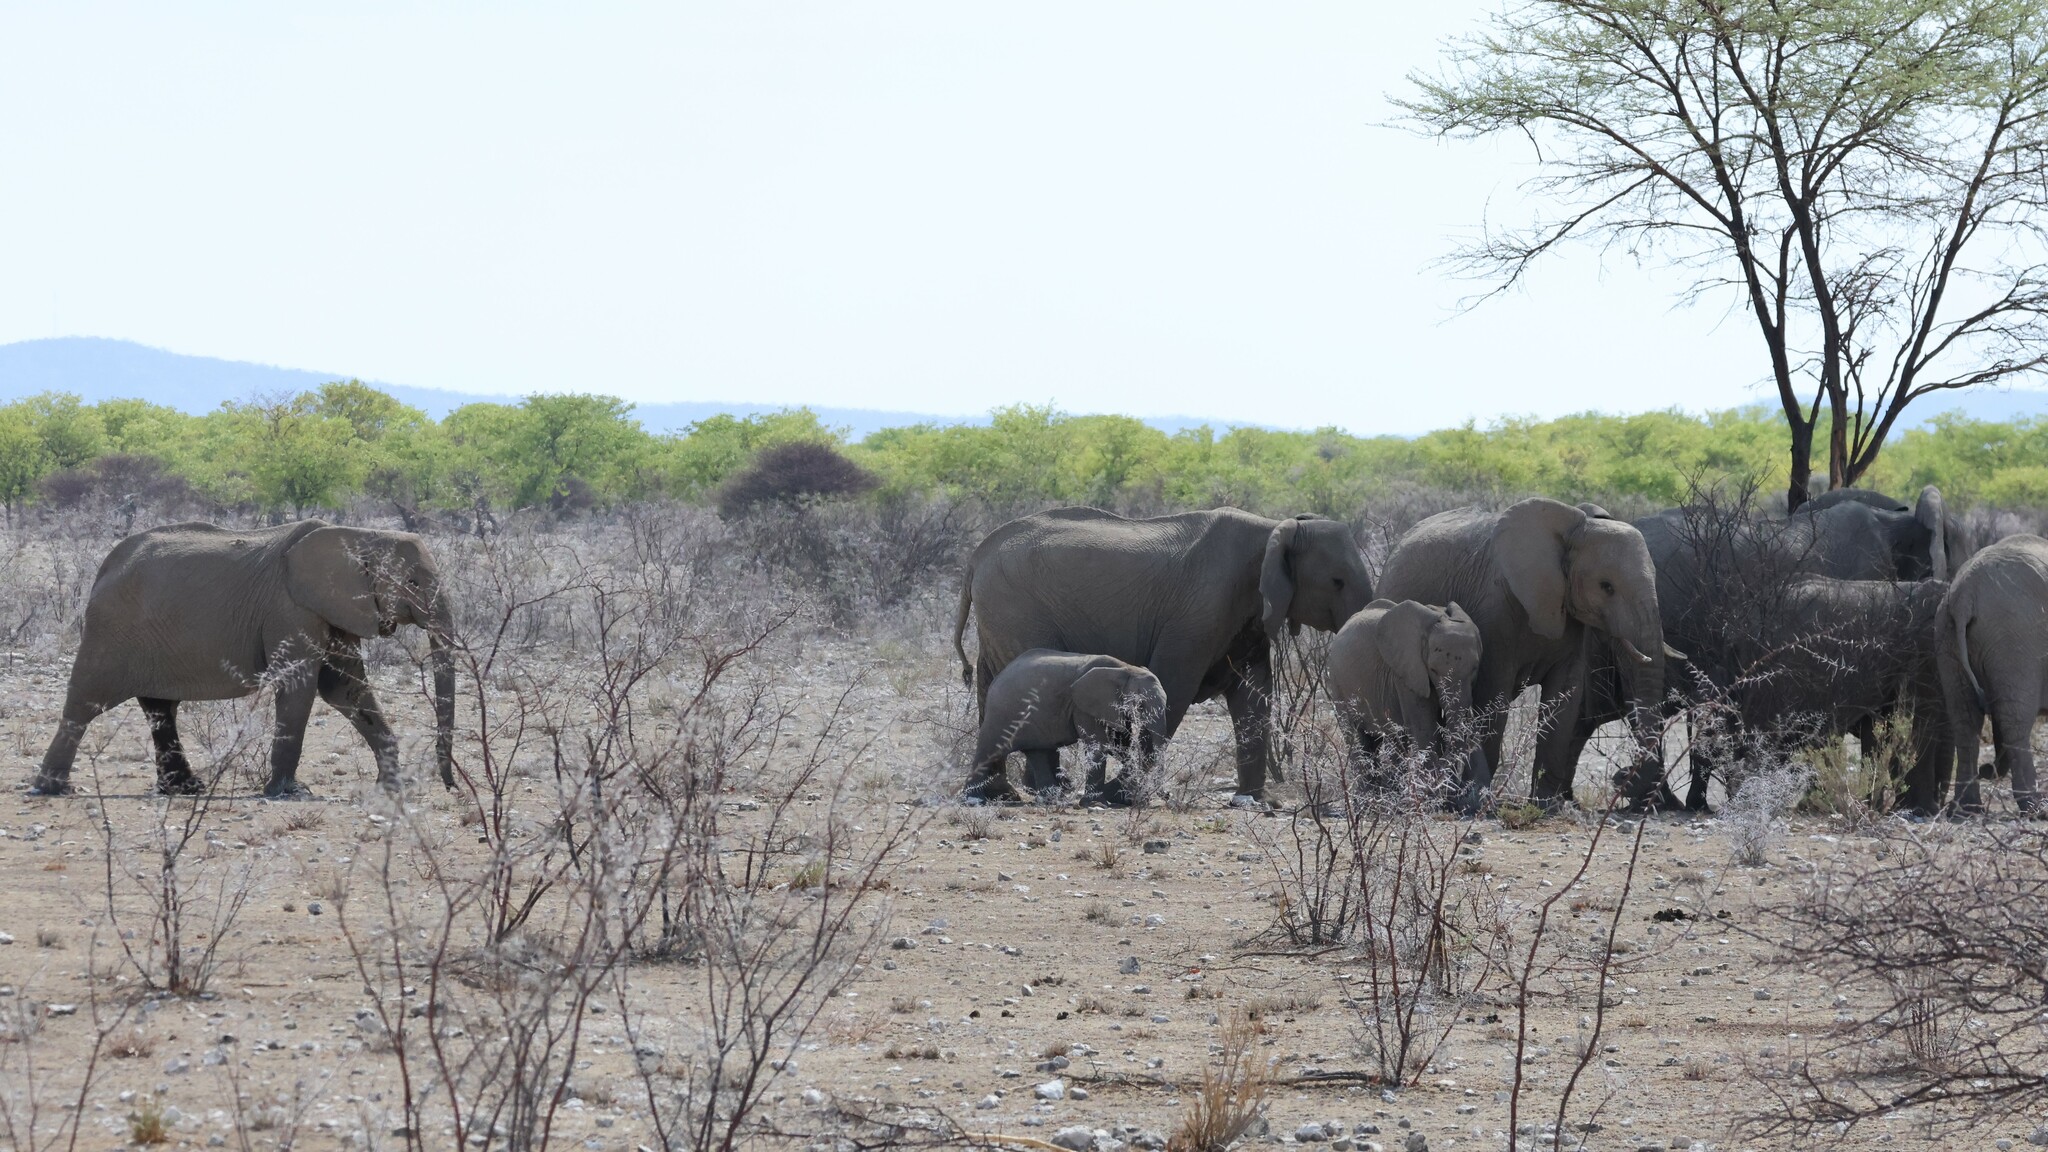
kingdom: Animalia
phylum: Chordata
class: Mammalia
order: Proboscidea
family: Elephantidae
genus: Loxodonta
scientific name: Loxodonta africana
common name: African elephant
